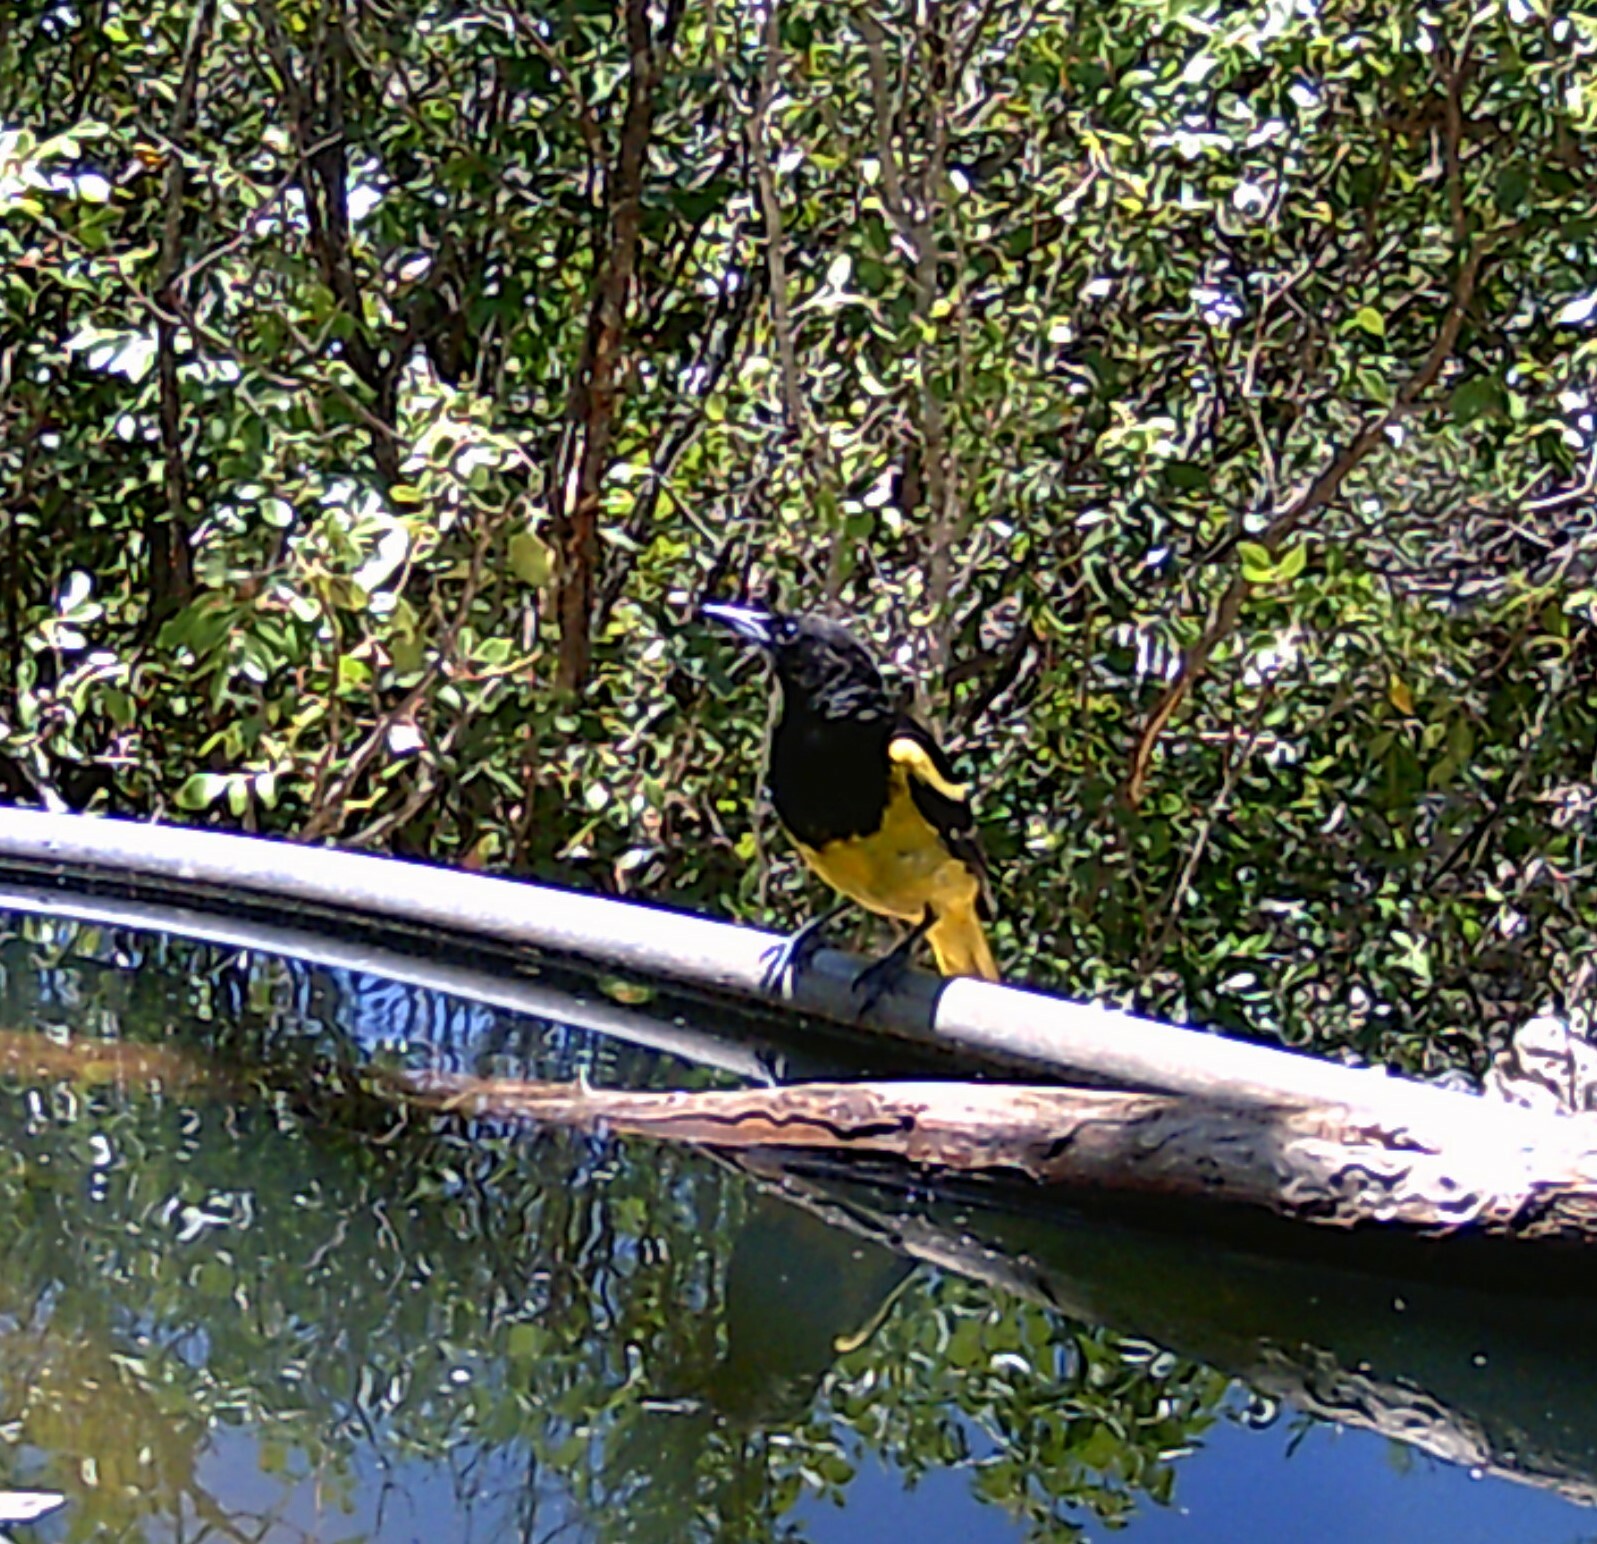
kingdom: Animalia
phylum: Chordata
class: Aves
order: Passeriformes
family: Icteridae
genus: Icterus
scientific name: Icterus parisorum
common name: Scott's oriole
